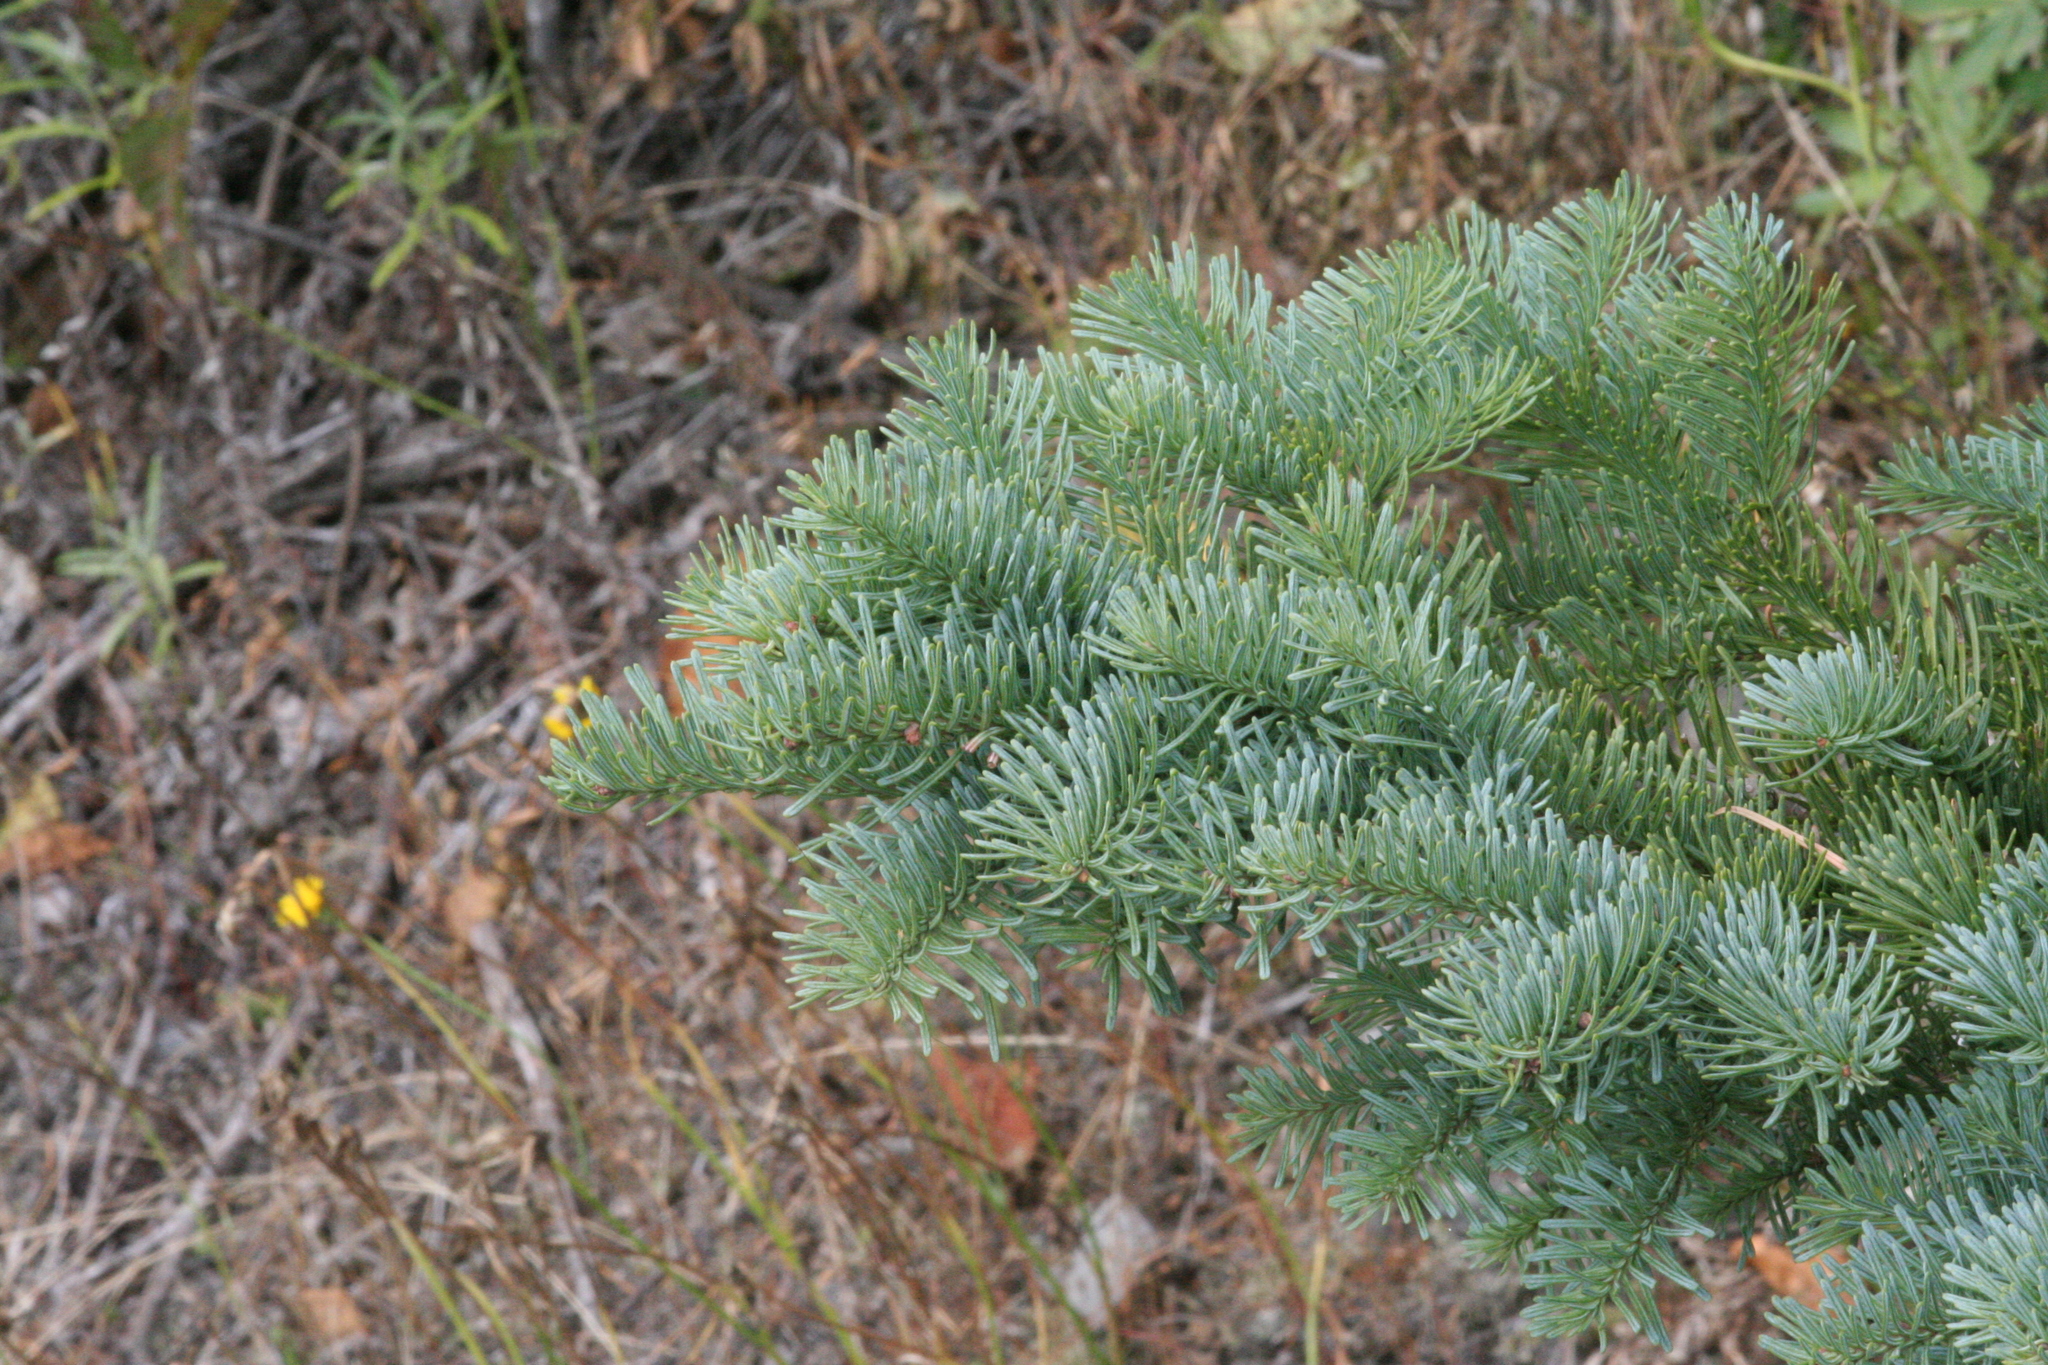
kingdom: Plantae
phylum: Tracheophyta
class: Pinopsida
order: Pinales
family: Pinaceae
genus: Abies
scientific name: Abies procera
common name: Noble fir
